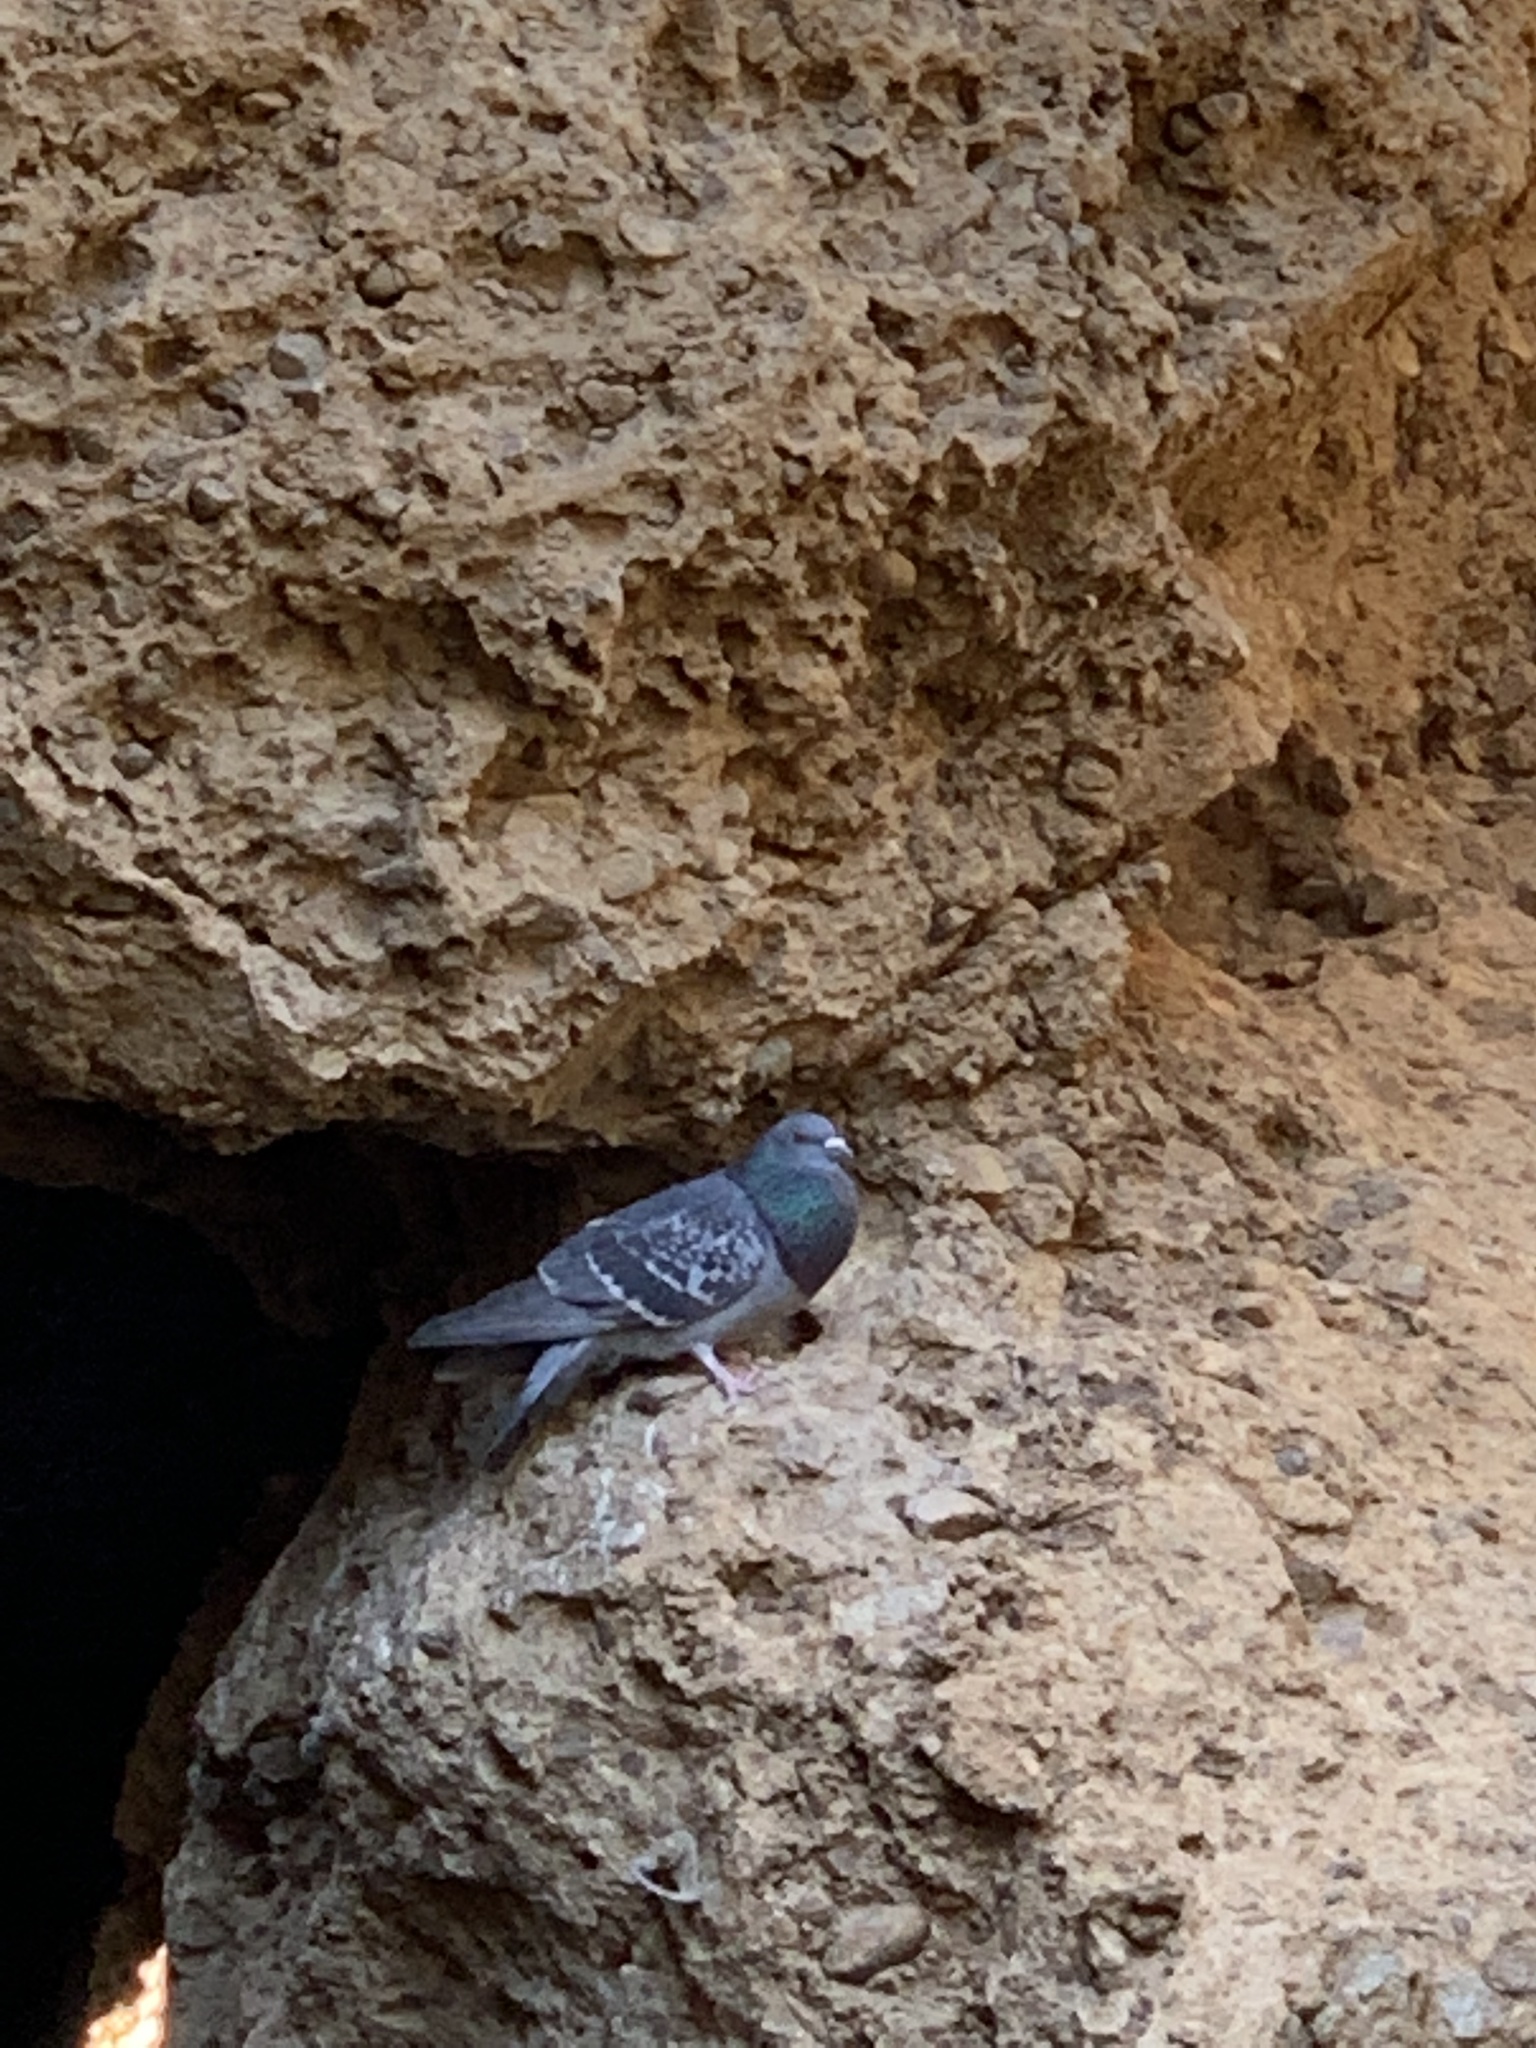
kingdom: Animalia
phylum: Chordata
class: Aves
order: Columbiformes
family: Columbidae
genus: Columba
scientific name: Columba livia
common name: Rock pigeon
